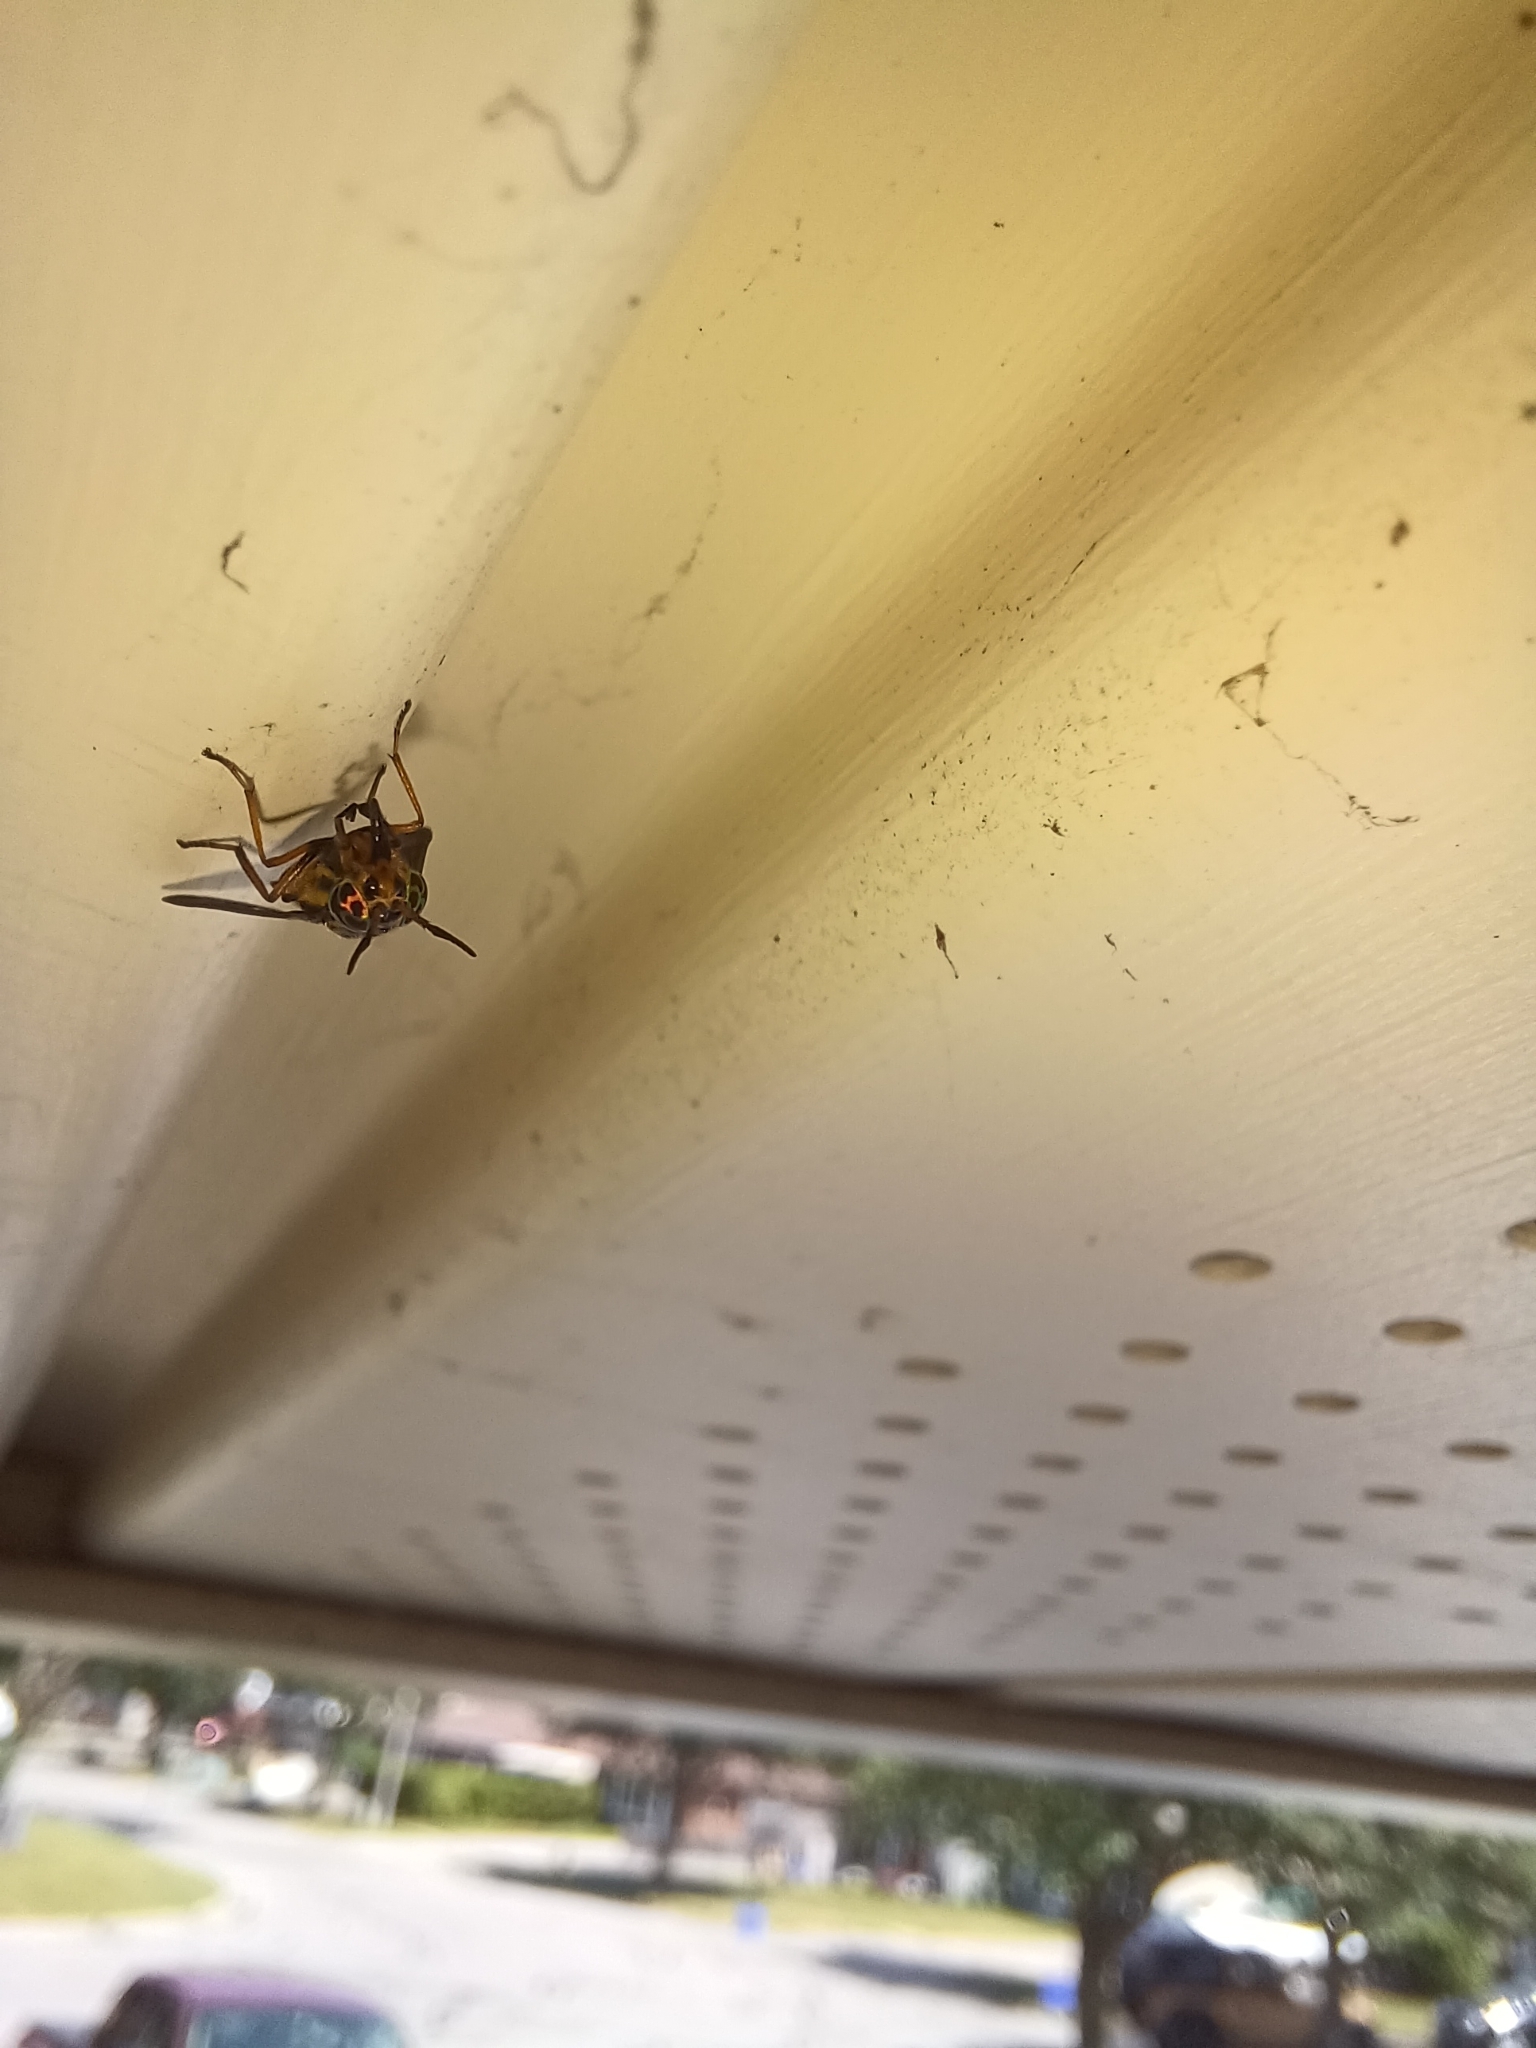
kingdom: Animalia
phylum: Arthropoda
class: Insecta
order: Diptera
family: Tabanidae
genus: Chrysops
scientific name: Chrysops univittatus
